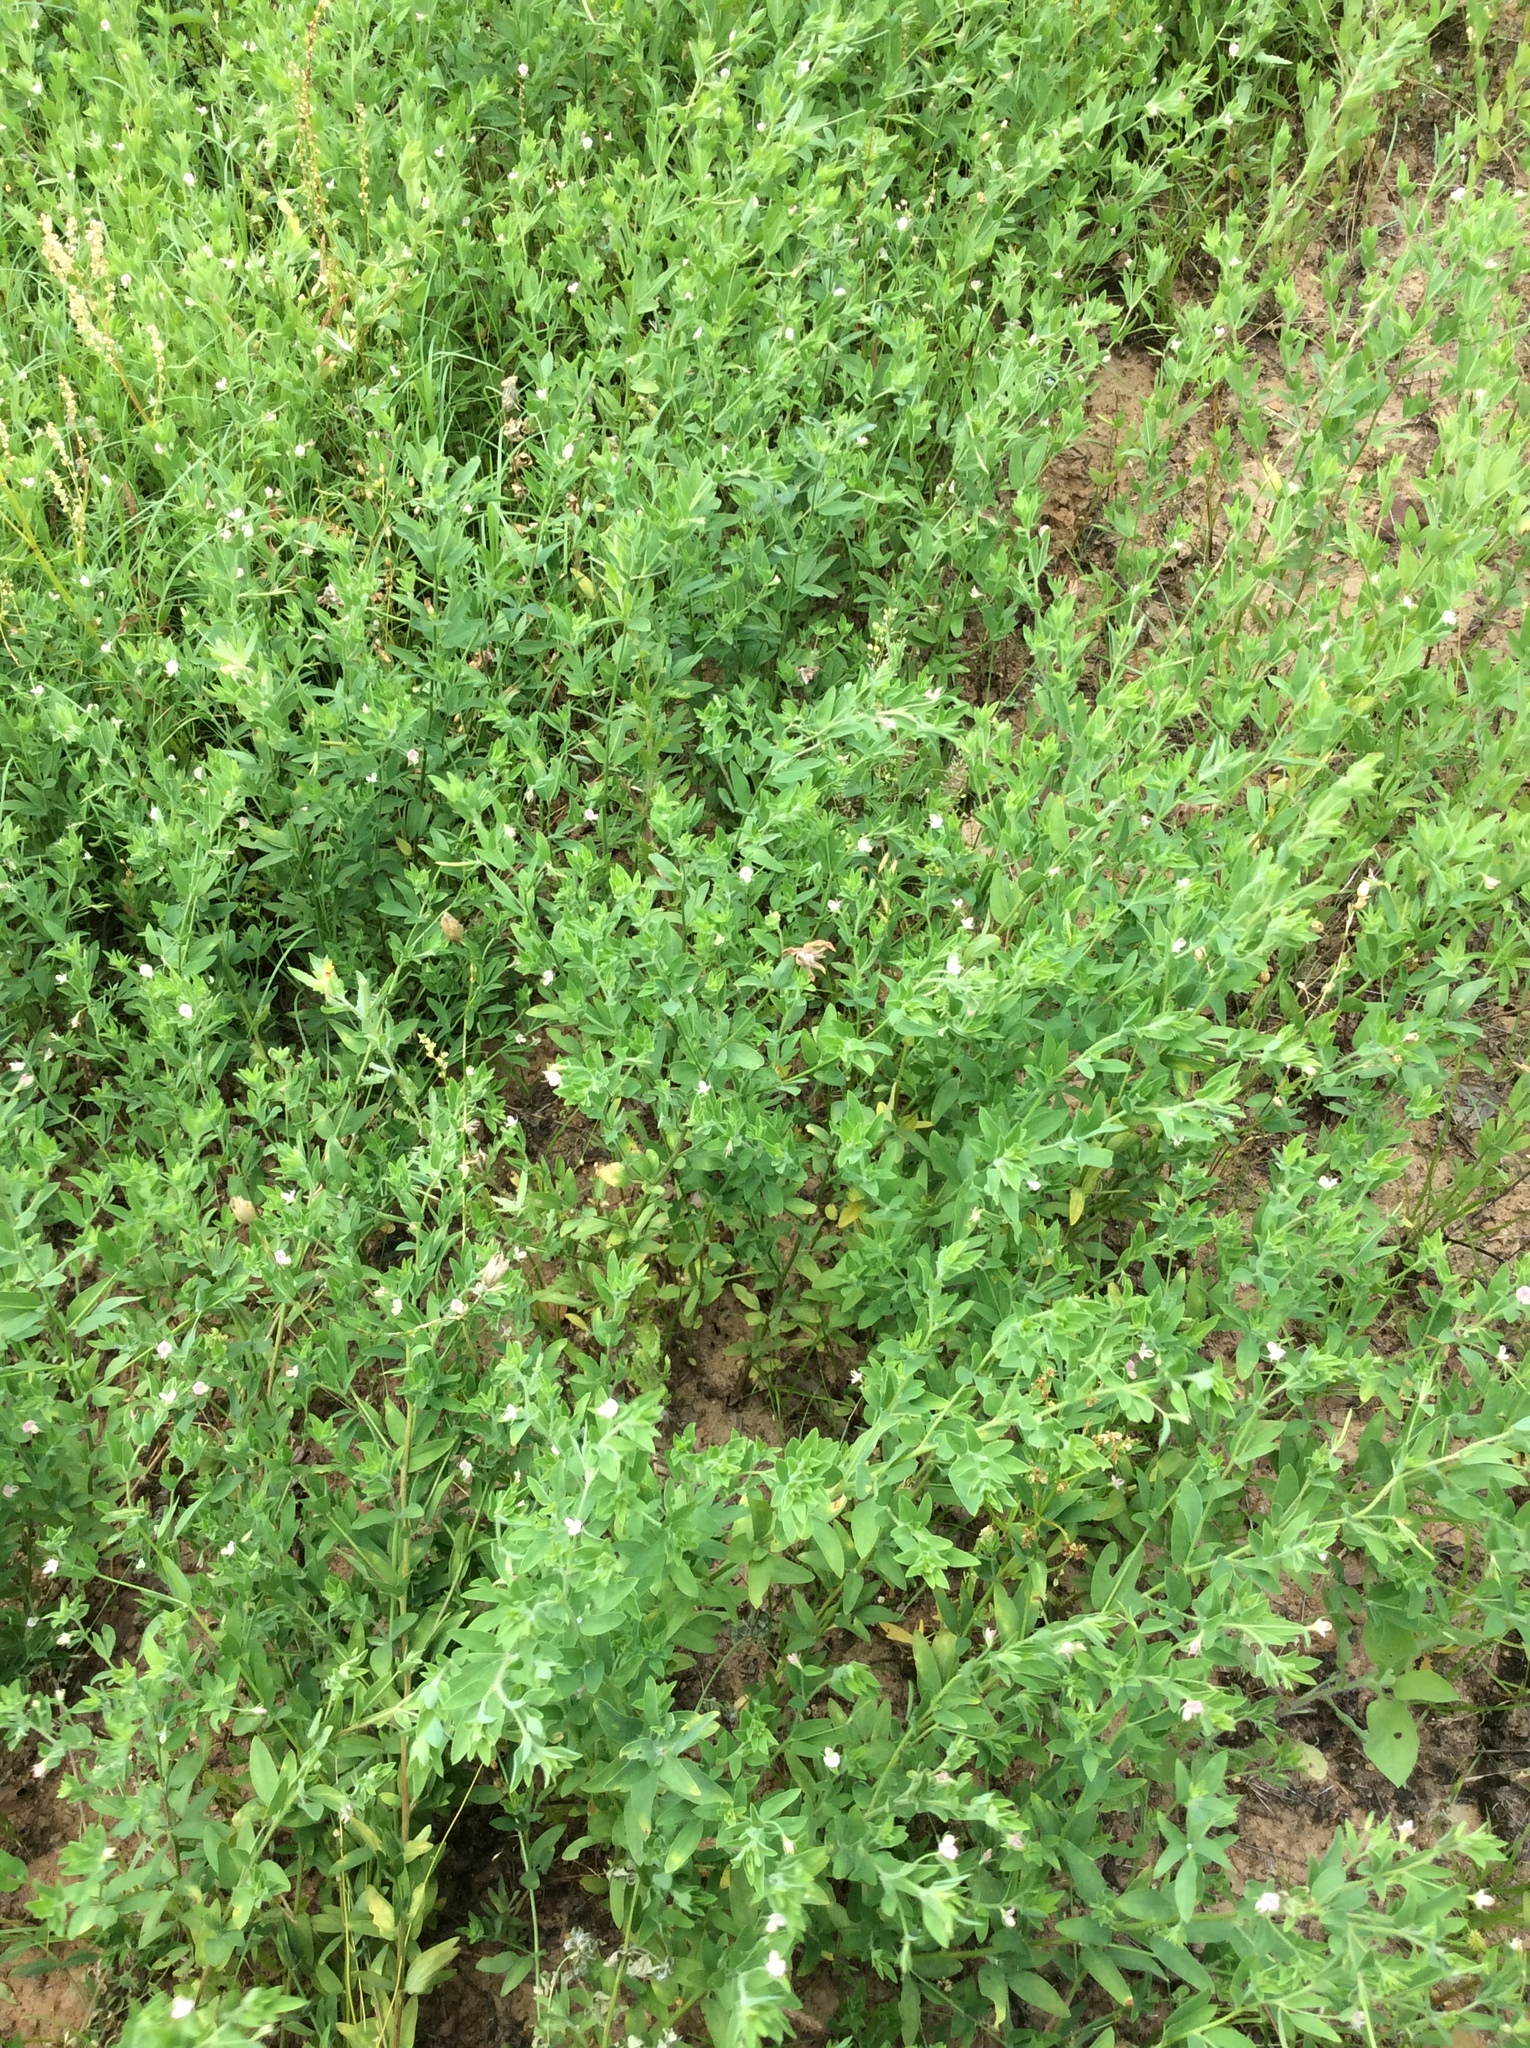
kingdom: Plantae
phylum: Tracheophyta
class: Magnoliopsida
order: Fabales
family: Fabaceae
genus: Acmispon
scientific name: Acmispon americanus
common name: American bird's-foot trefoil
